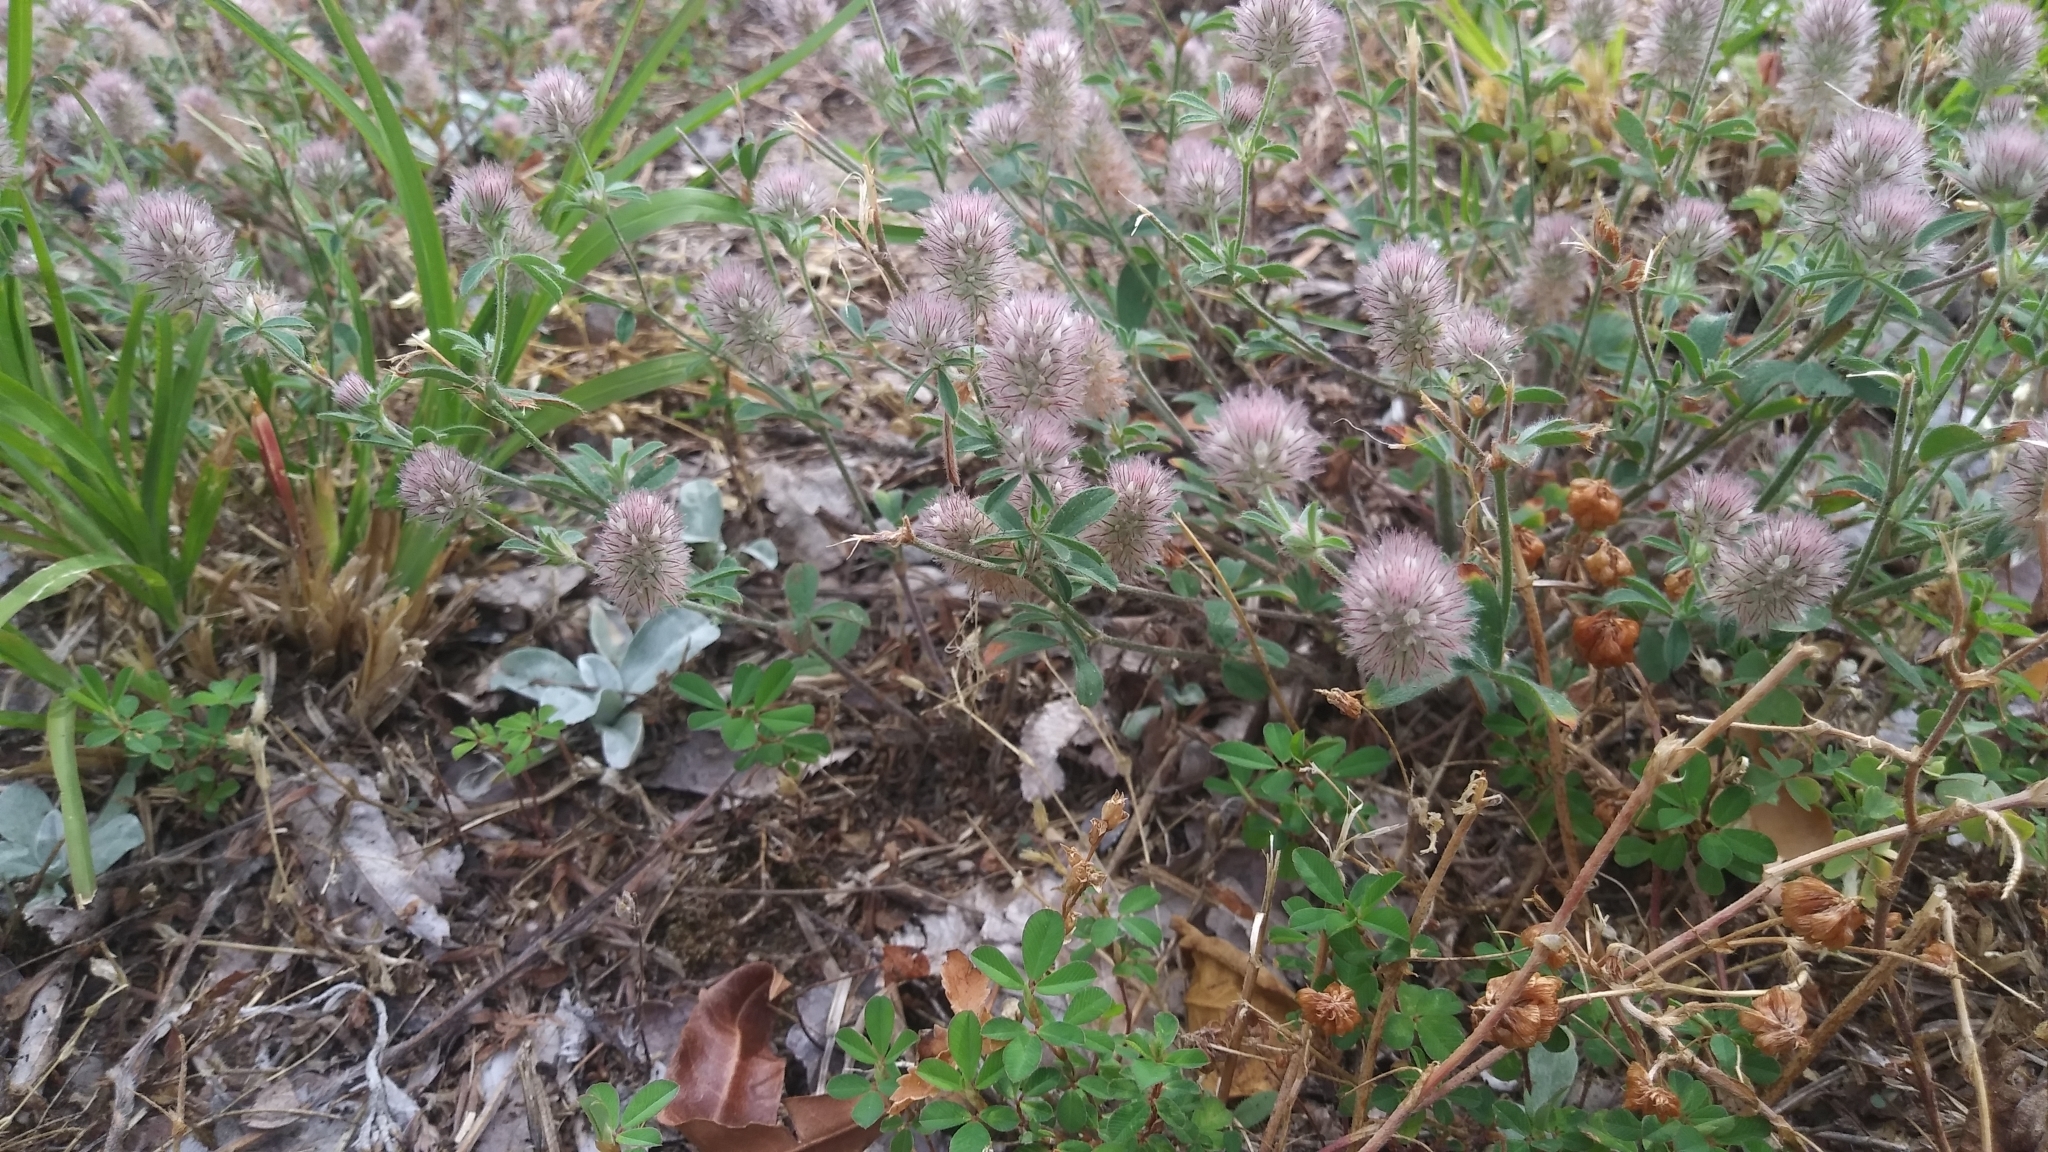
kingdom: Plantae
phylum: Tracheophyta
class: Magnoliopsida
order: Fabales
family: Fabaceae
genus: Trifolium
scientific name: Trifolium arvense
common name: Hare's-foot clover
